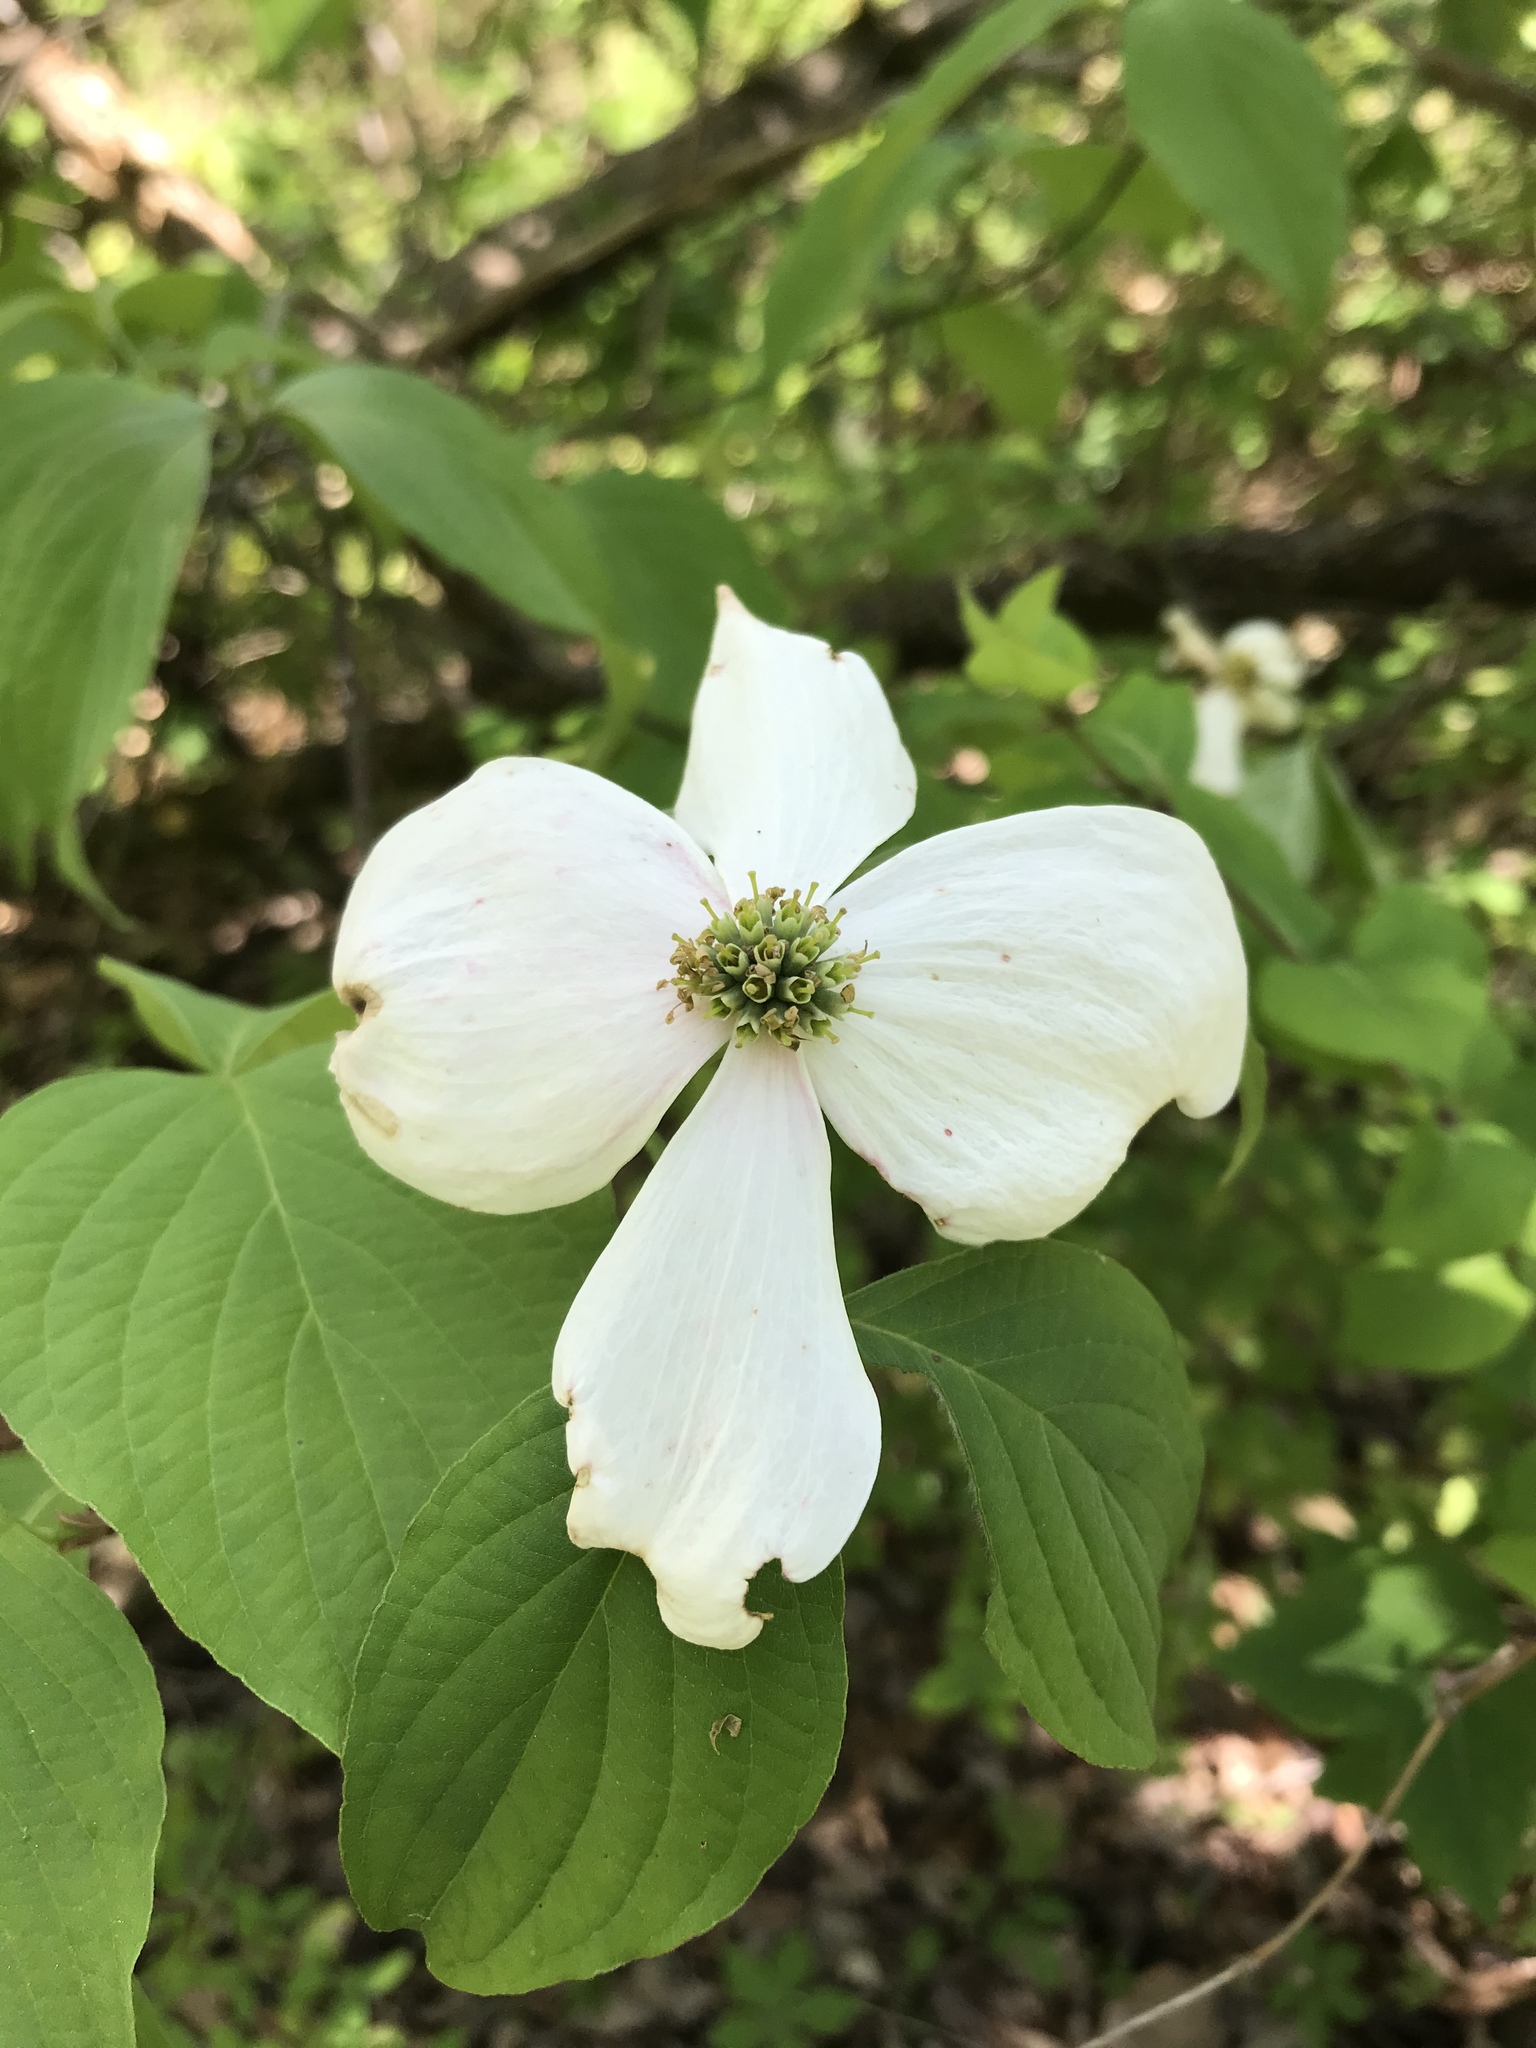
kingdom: Plantae
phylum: Tracheophyta
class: Magnoliopsida
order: Cornales
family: Cornaceae
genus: Cornus
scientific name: Cornus florida
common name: Flowering dogwood
